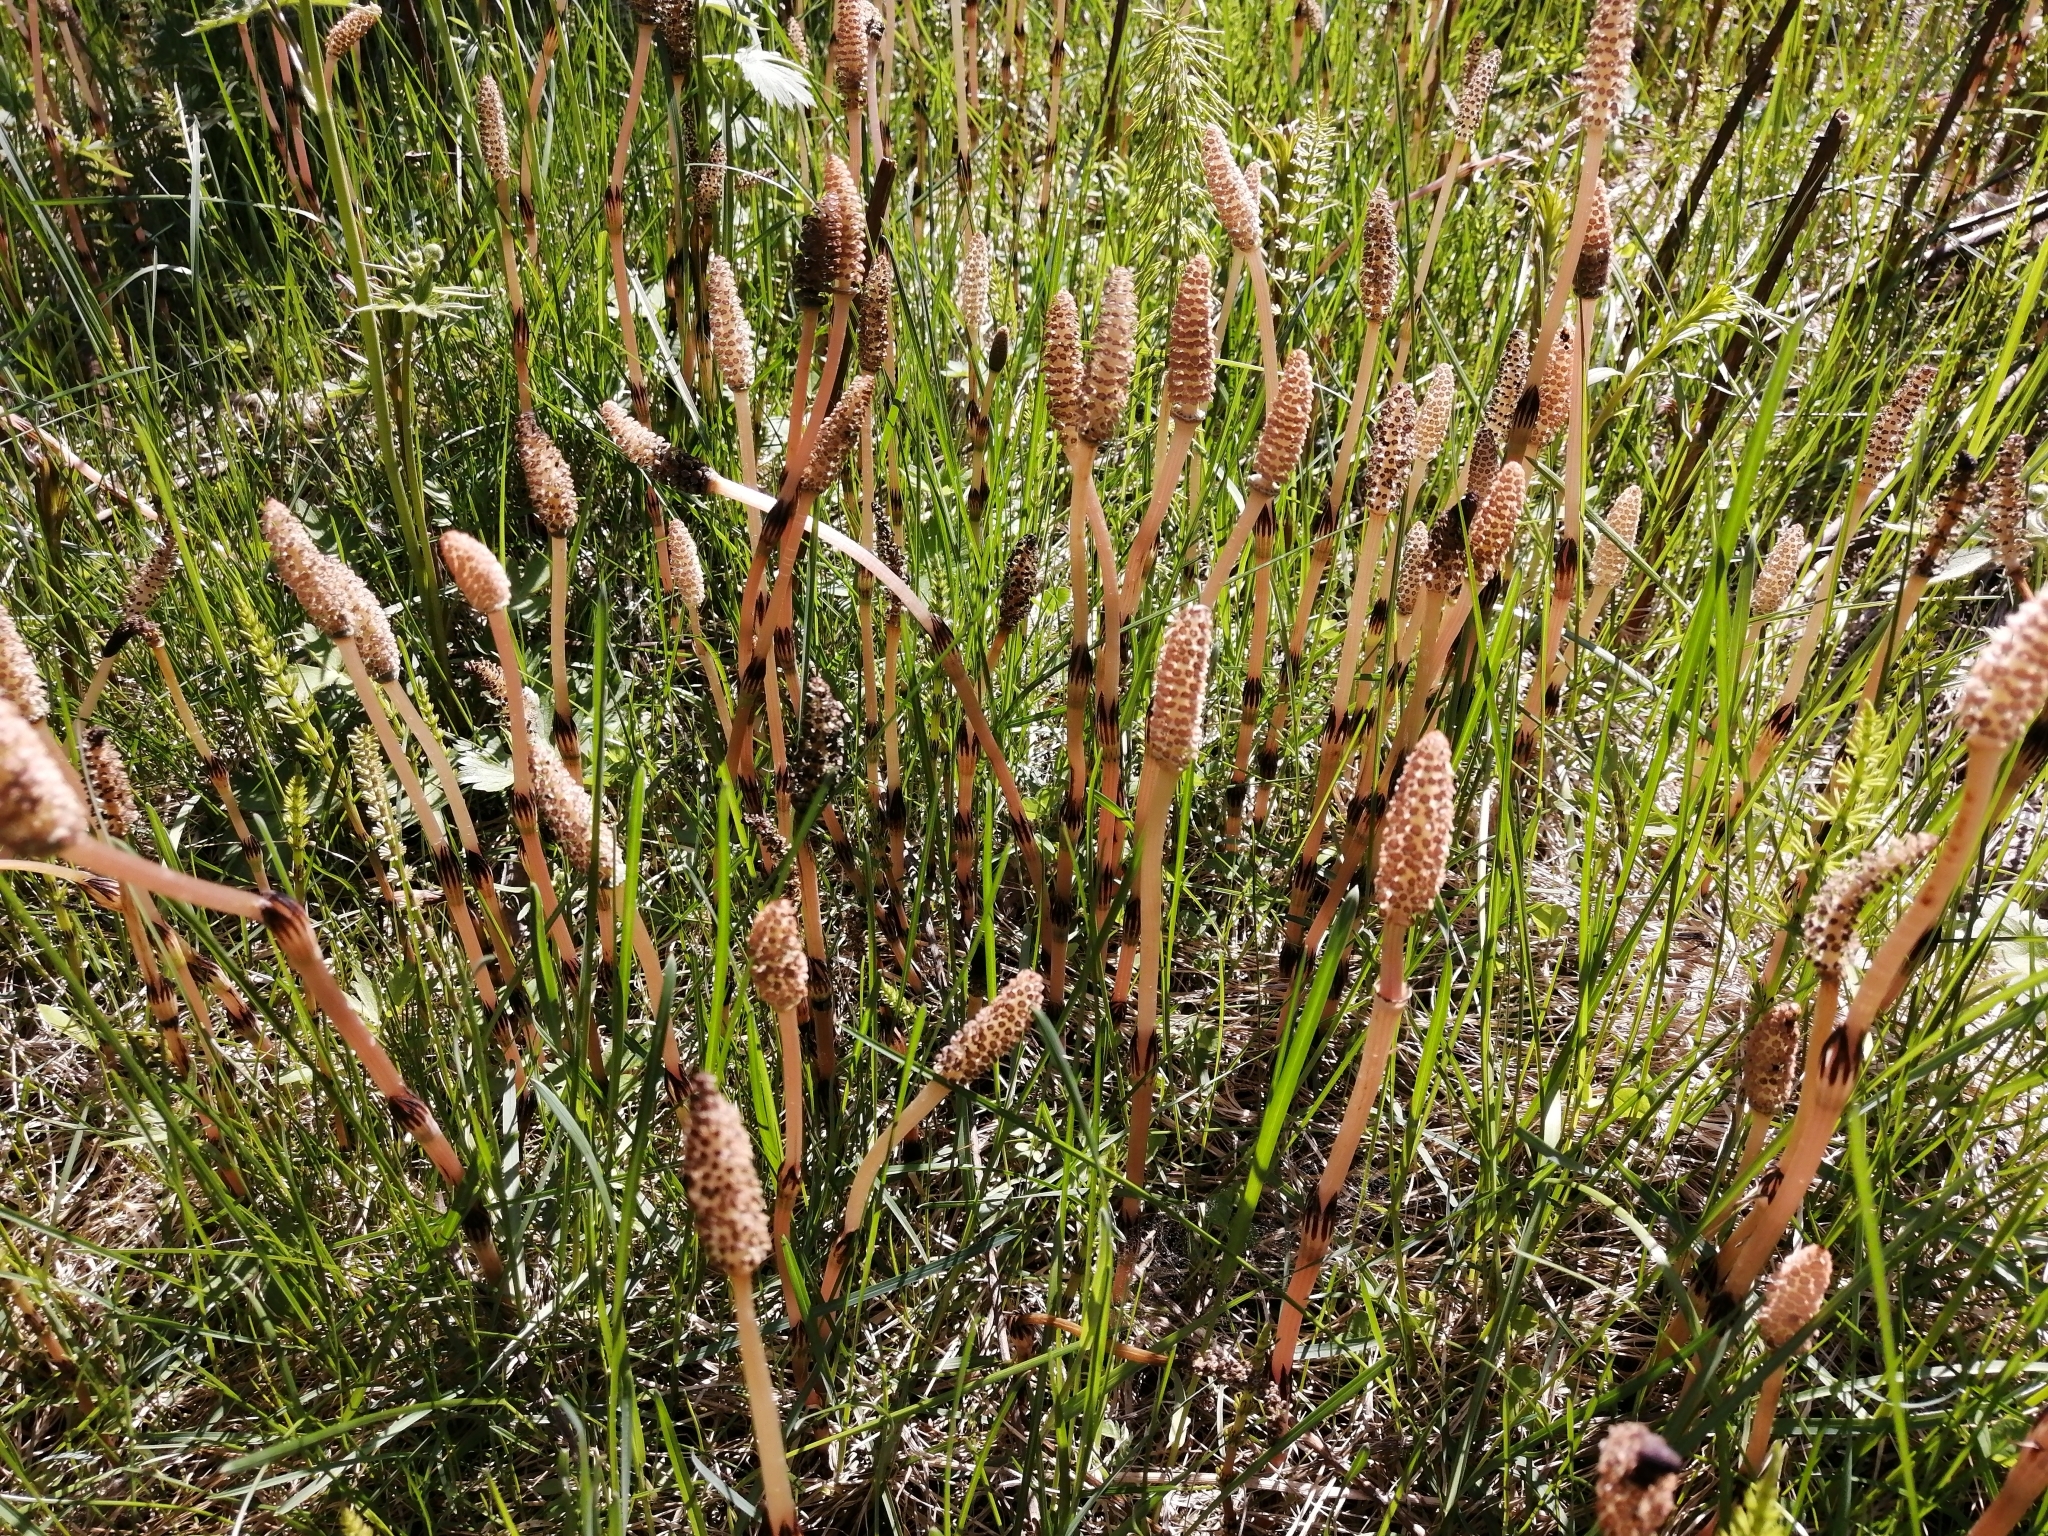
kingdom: Plantae
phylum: Tracheophyta
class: Polypodiopsida
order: Equisetales
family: Equisetaceae
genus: Equisetum
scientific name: Equisetum arvense
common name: Field horsetail
